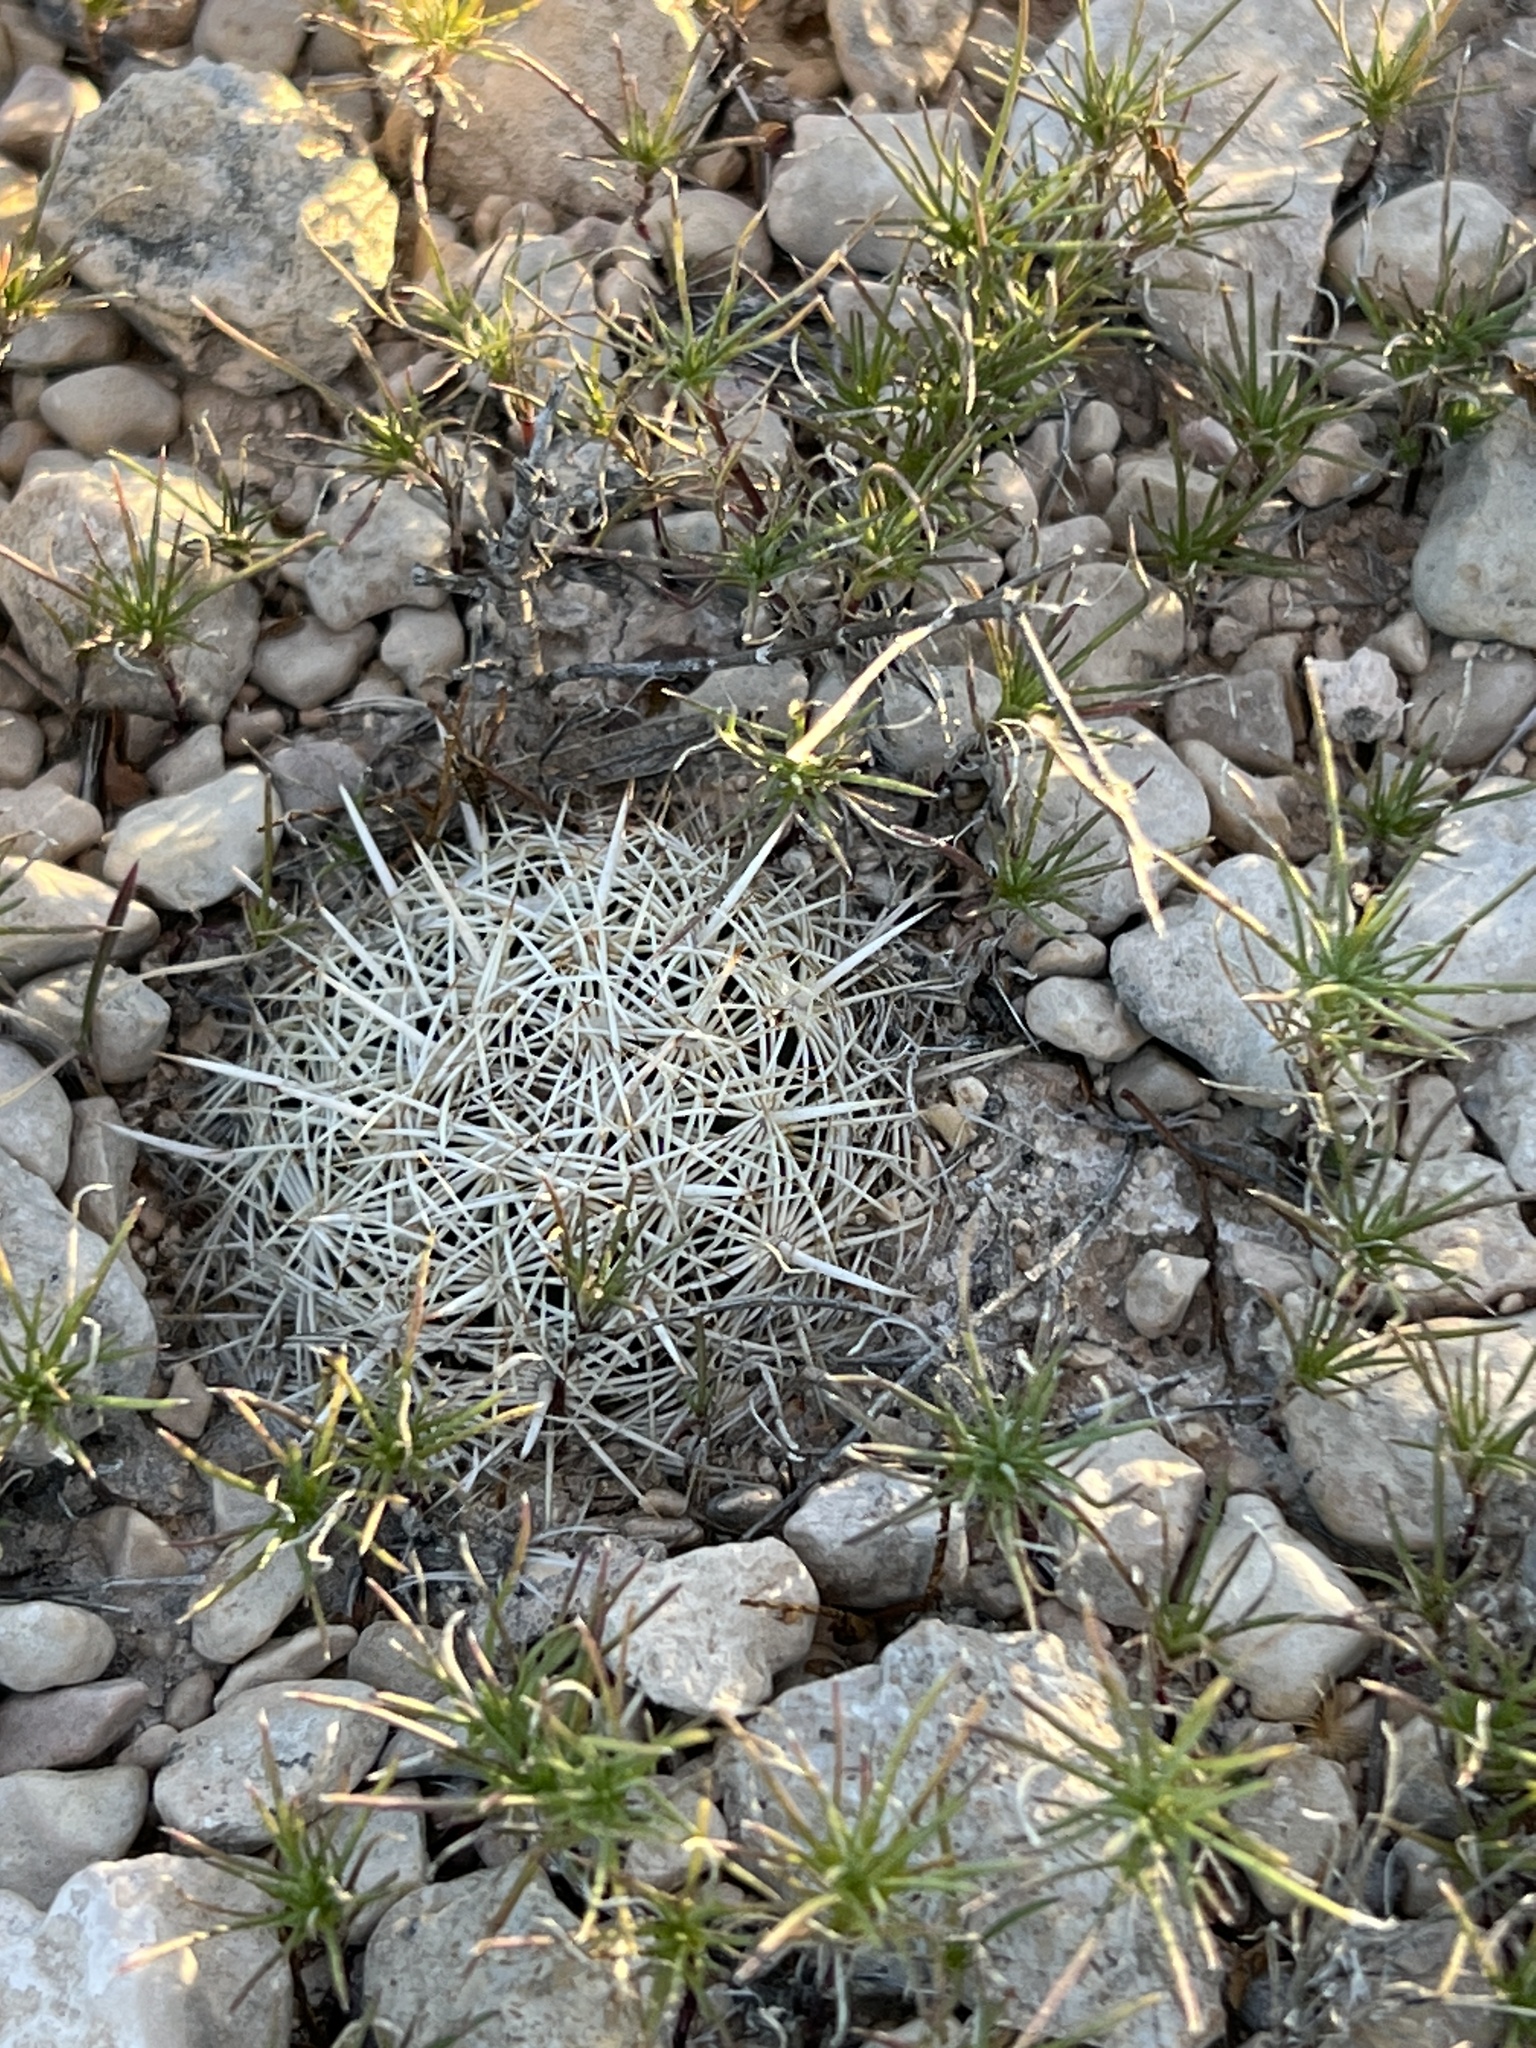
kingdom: Plantae
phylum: Tracheophyta
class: Magnoliopsida
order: Caryophyllales
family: Cactaceae
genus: Coryphantha
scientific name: Coryphantha echinus
